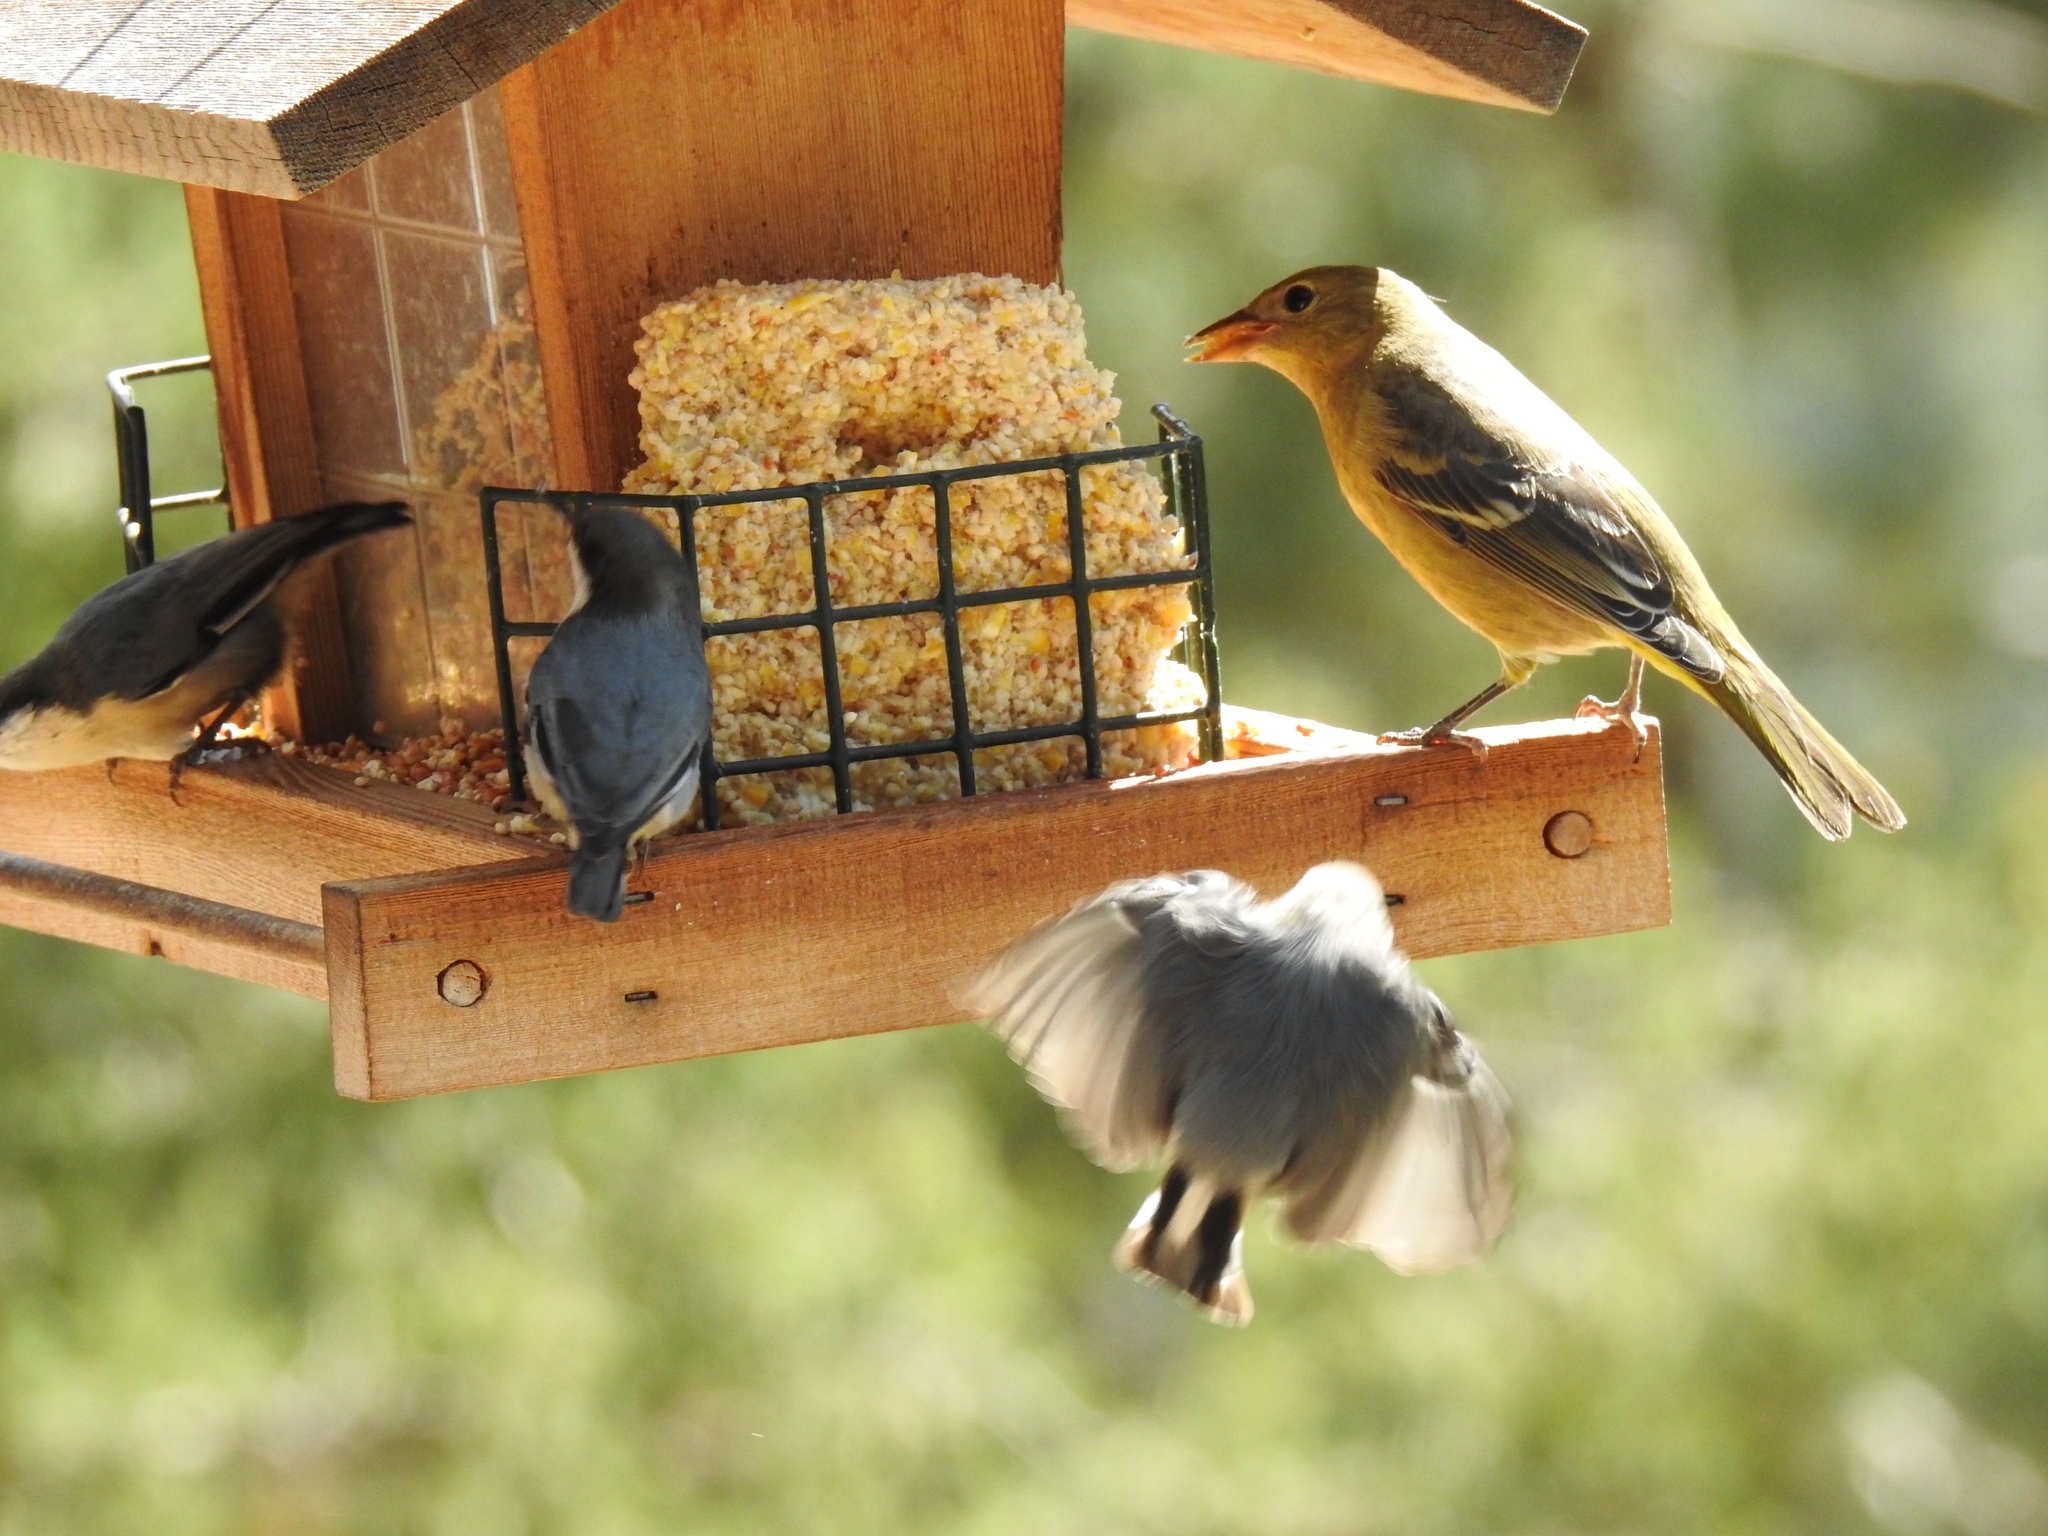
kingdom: Animalia
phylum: Chordata
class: Aves
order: Passeriformes
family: Sittidae
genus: Sitta
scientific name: Sitta pygmaea
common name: Pygmy nuthatch
